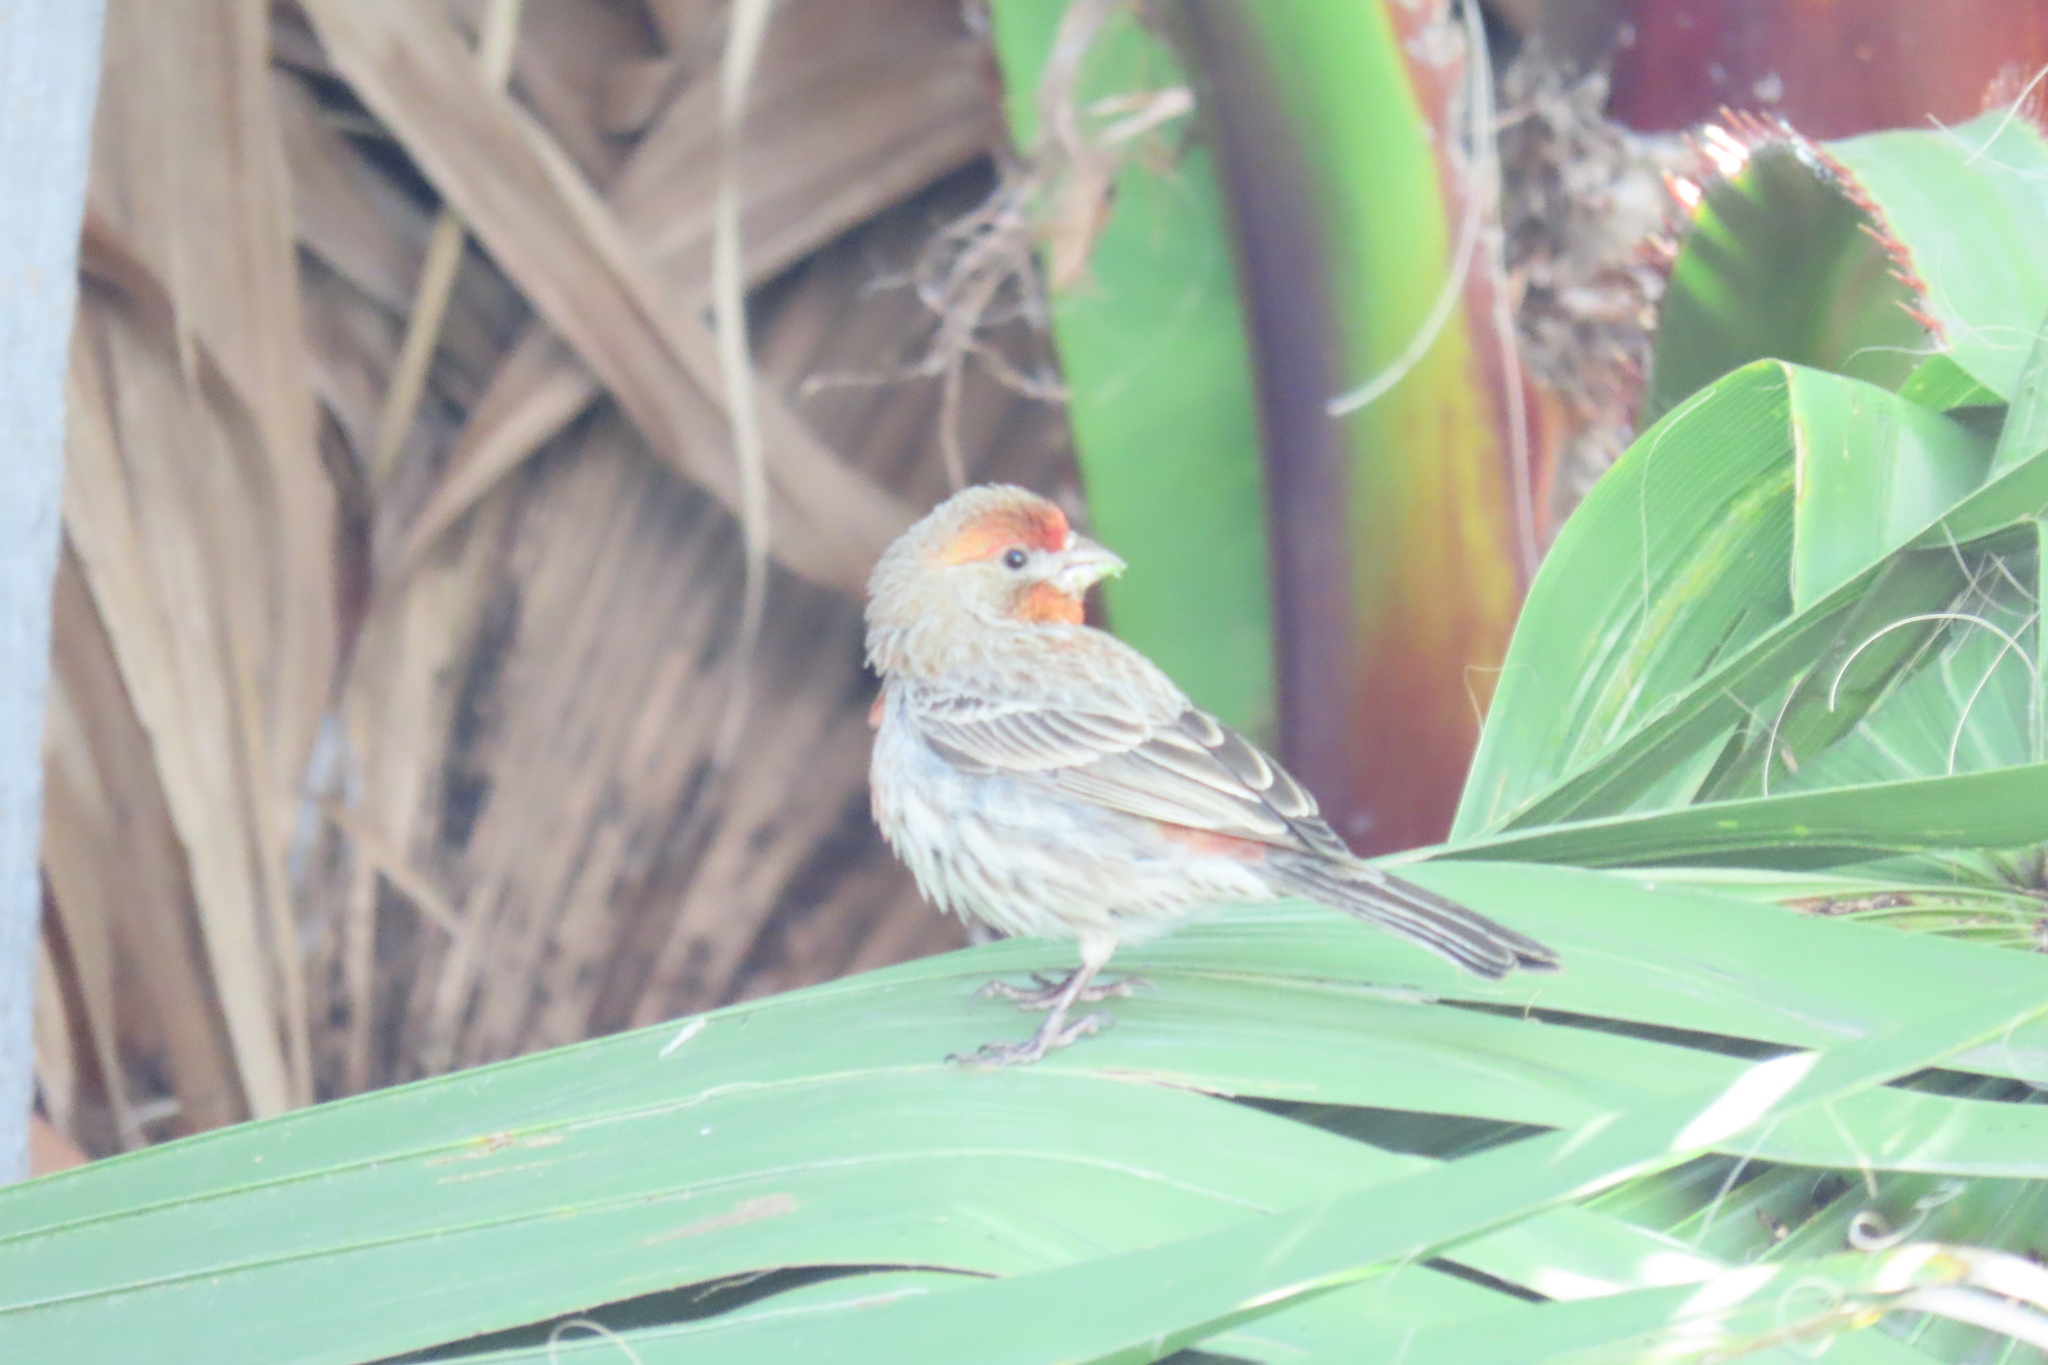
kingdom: Animalia
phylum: Chordata
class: Aves
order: Passeriformes
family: Fringillidae
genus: Haemorhous
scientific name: Haemorhous mexicanus
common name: House finch
